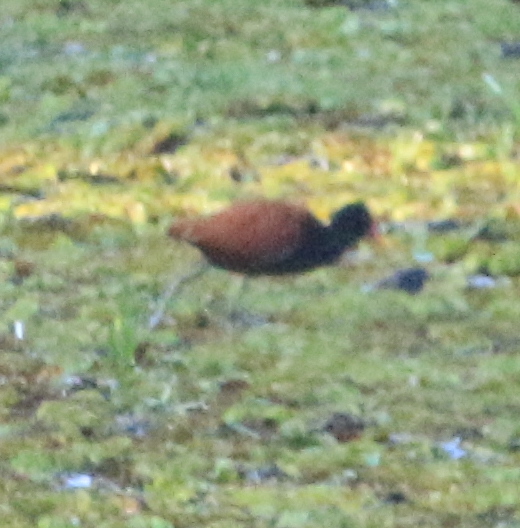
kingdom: Animalia
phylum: Chordata
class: Aves
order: Charadriiformes
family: Jacanidae
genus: Jacana
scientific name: Jacana jacana
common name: Wattled jacana
